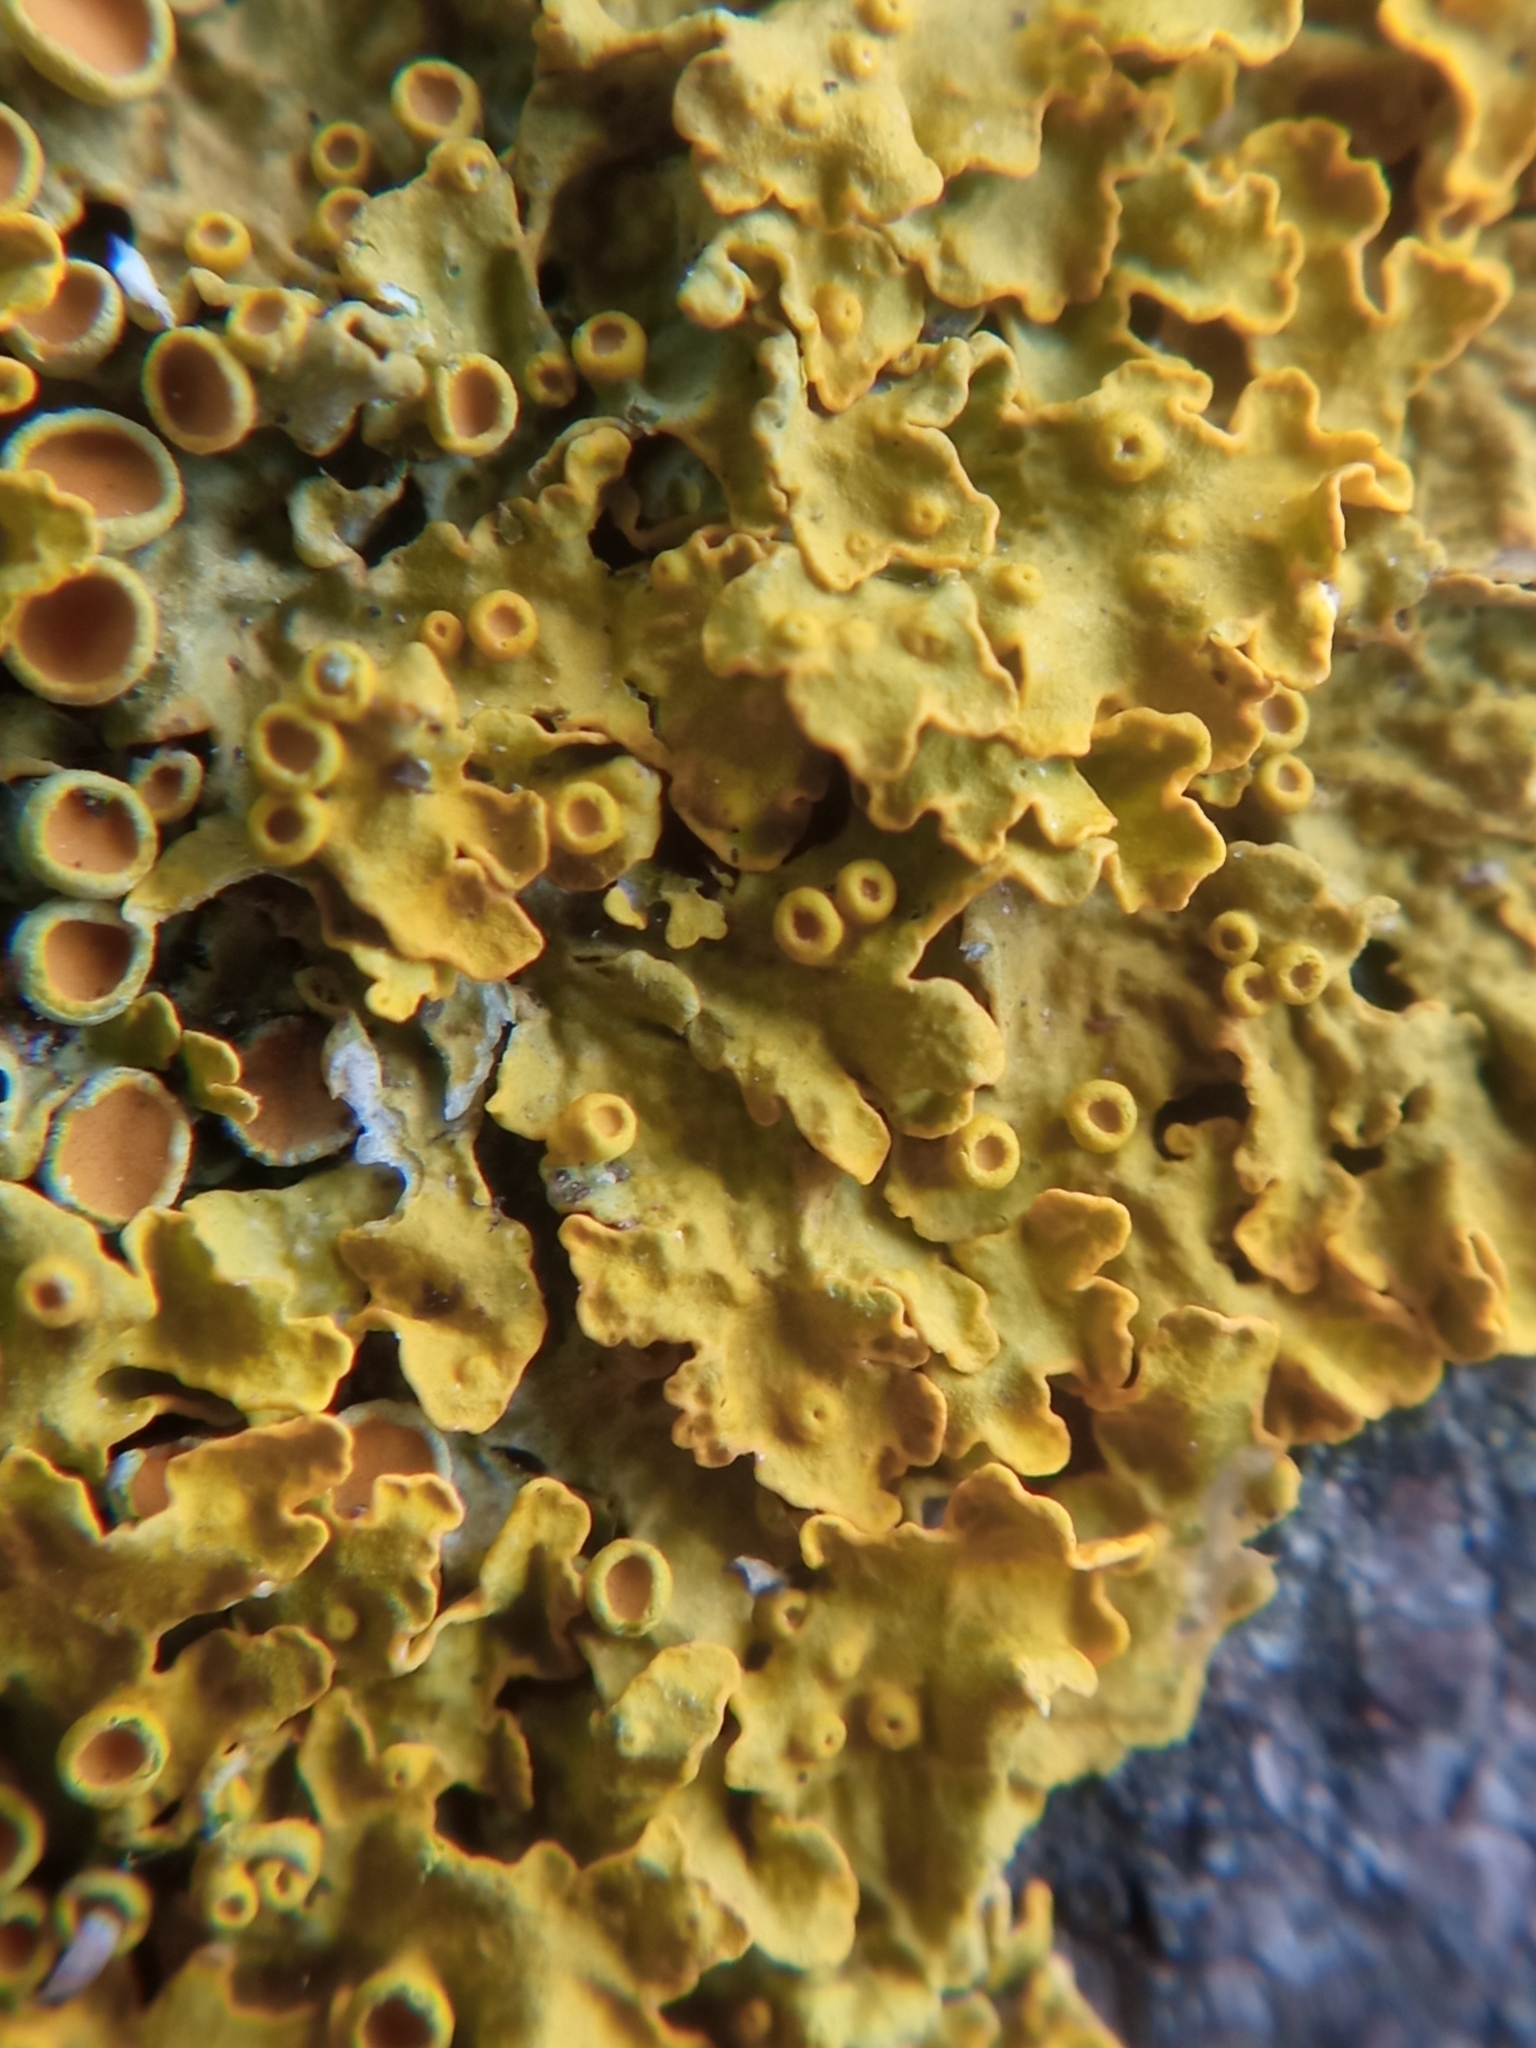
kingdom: Fungi
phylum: Ascomycota
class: Lecanoromycetes
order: Teloschistales
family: Teloschistaceae
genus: Xanthoria
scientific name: Xanthoria parietina
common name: Common orange lichen
